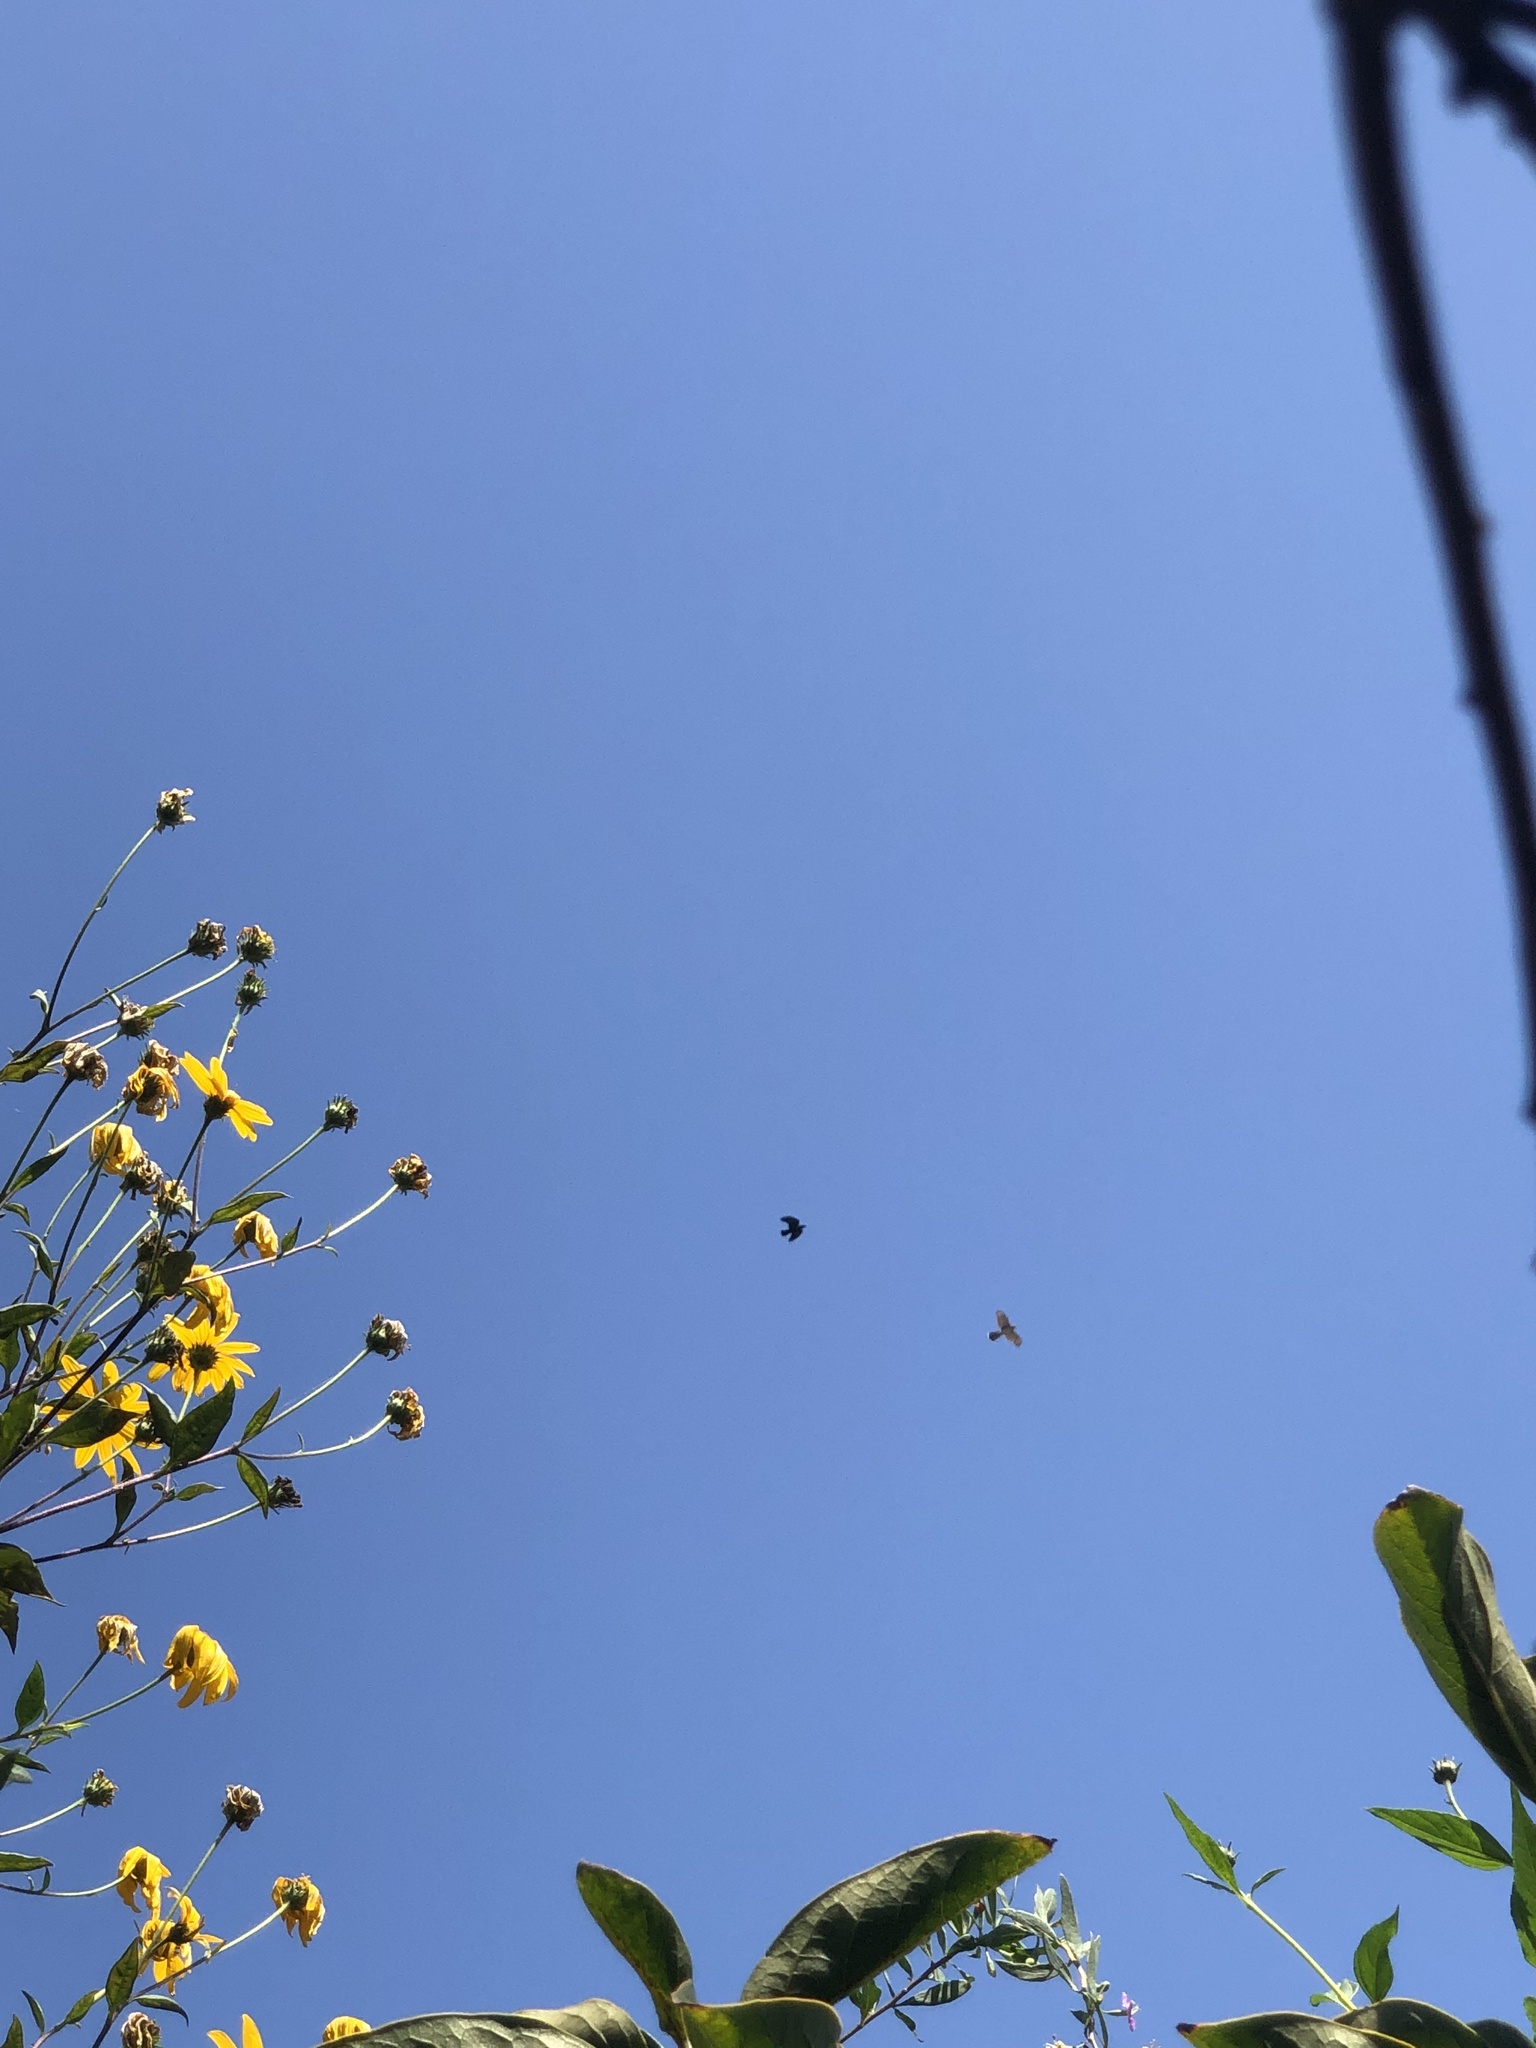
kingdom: Animalia
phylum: Chordata
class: Aves
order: Accipitriformes
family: Accipitridae
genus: Accipiter
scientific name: Accipiter cooperii
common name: Cooper's hawk
